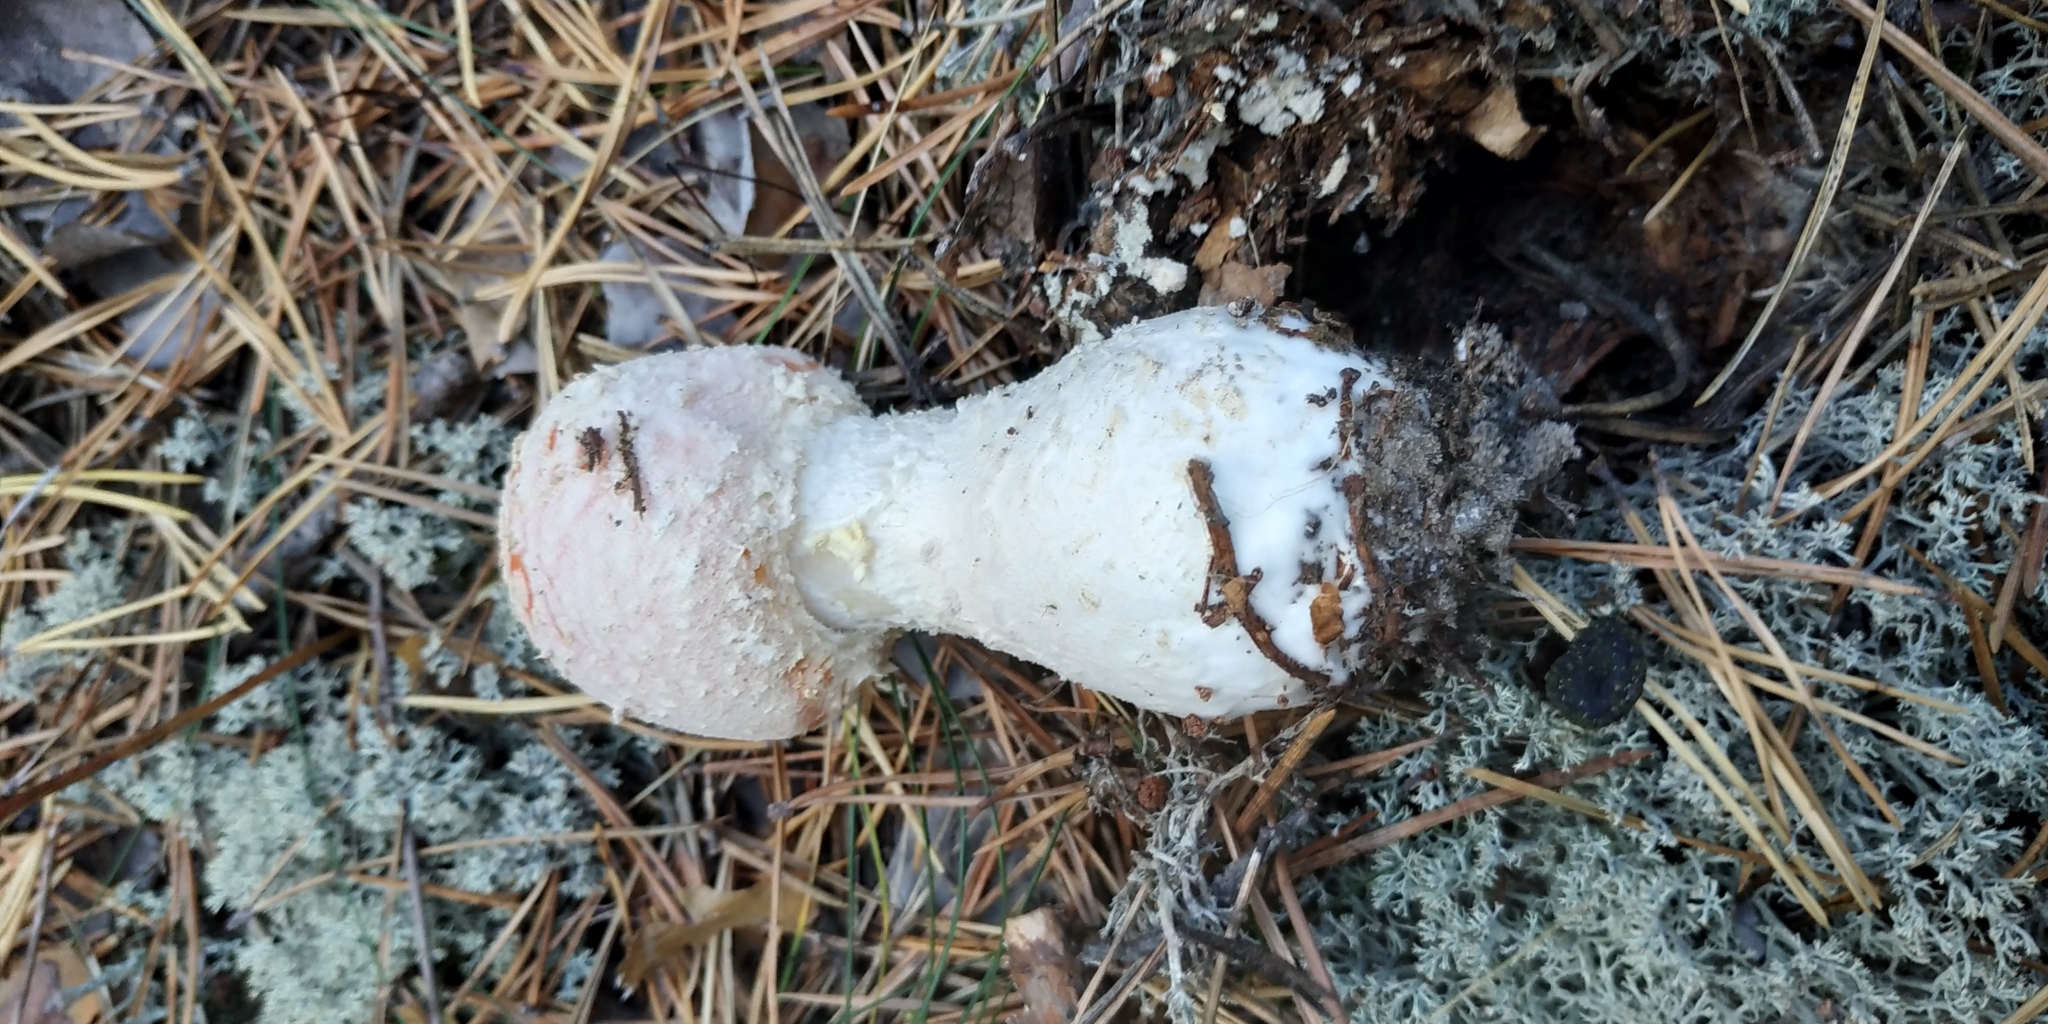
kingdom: Fungi
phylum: Basidiomycota
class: Agaricomycetes
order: Agaricales
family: Amanitaceae
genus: Amanita
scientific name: Amanita muscaria
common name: Fly agaric
